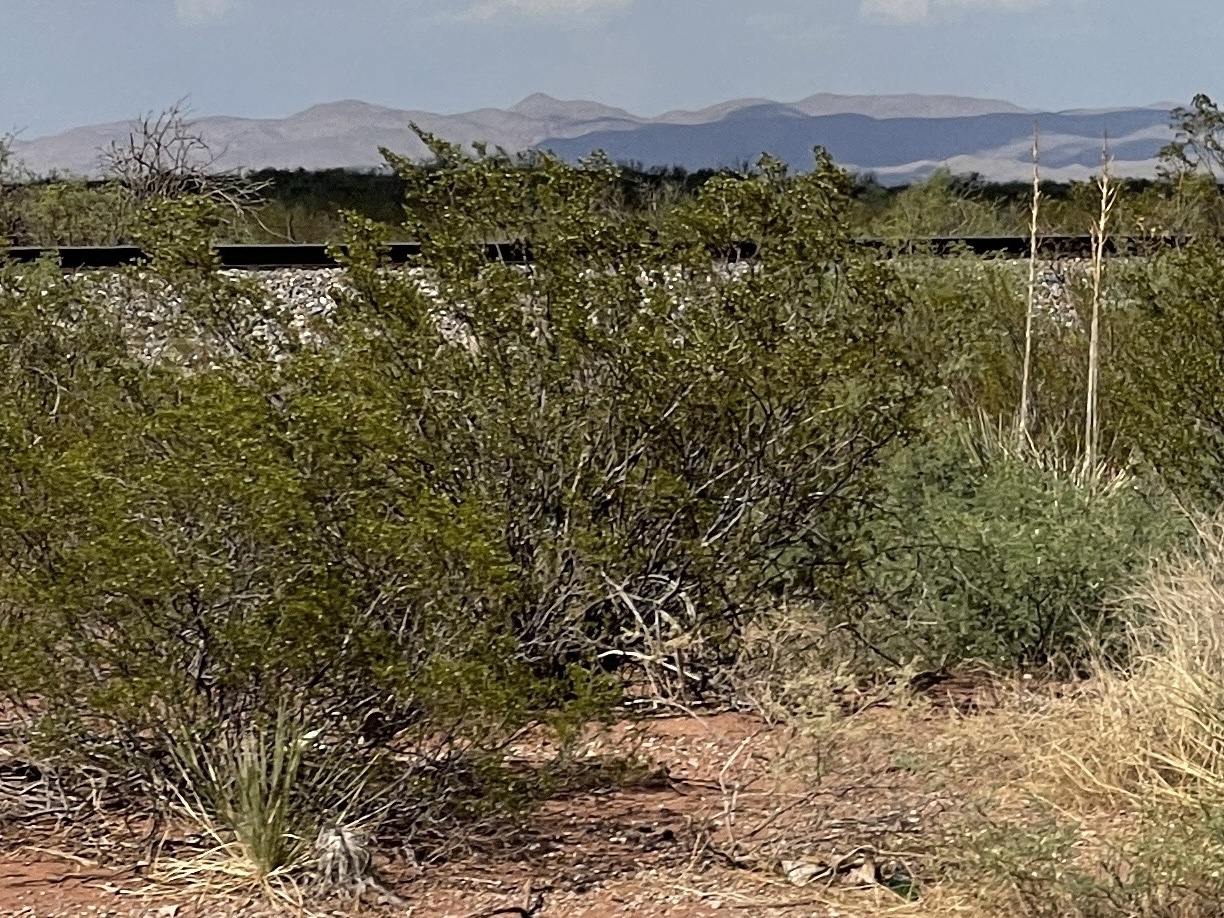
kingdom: Plantae
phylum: Tracheophyta
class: Magnoliopsida
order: Zygophyllales
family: Zygophyllaceae
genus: Larrea
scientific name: Larrea tridentata
